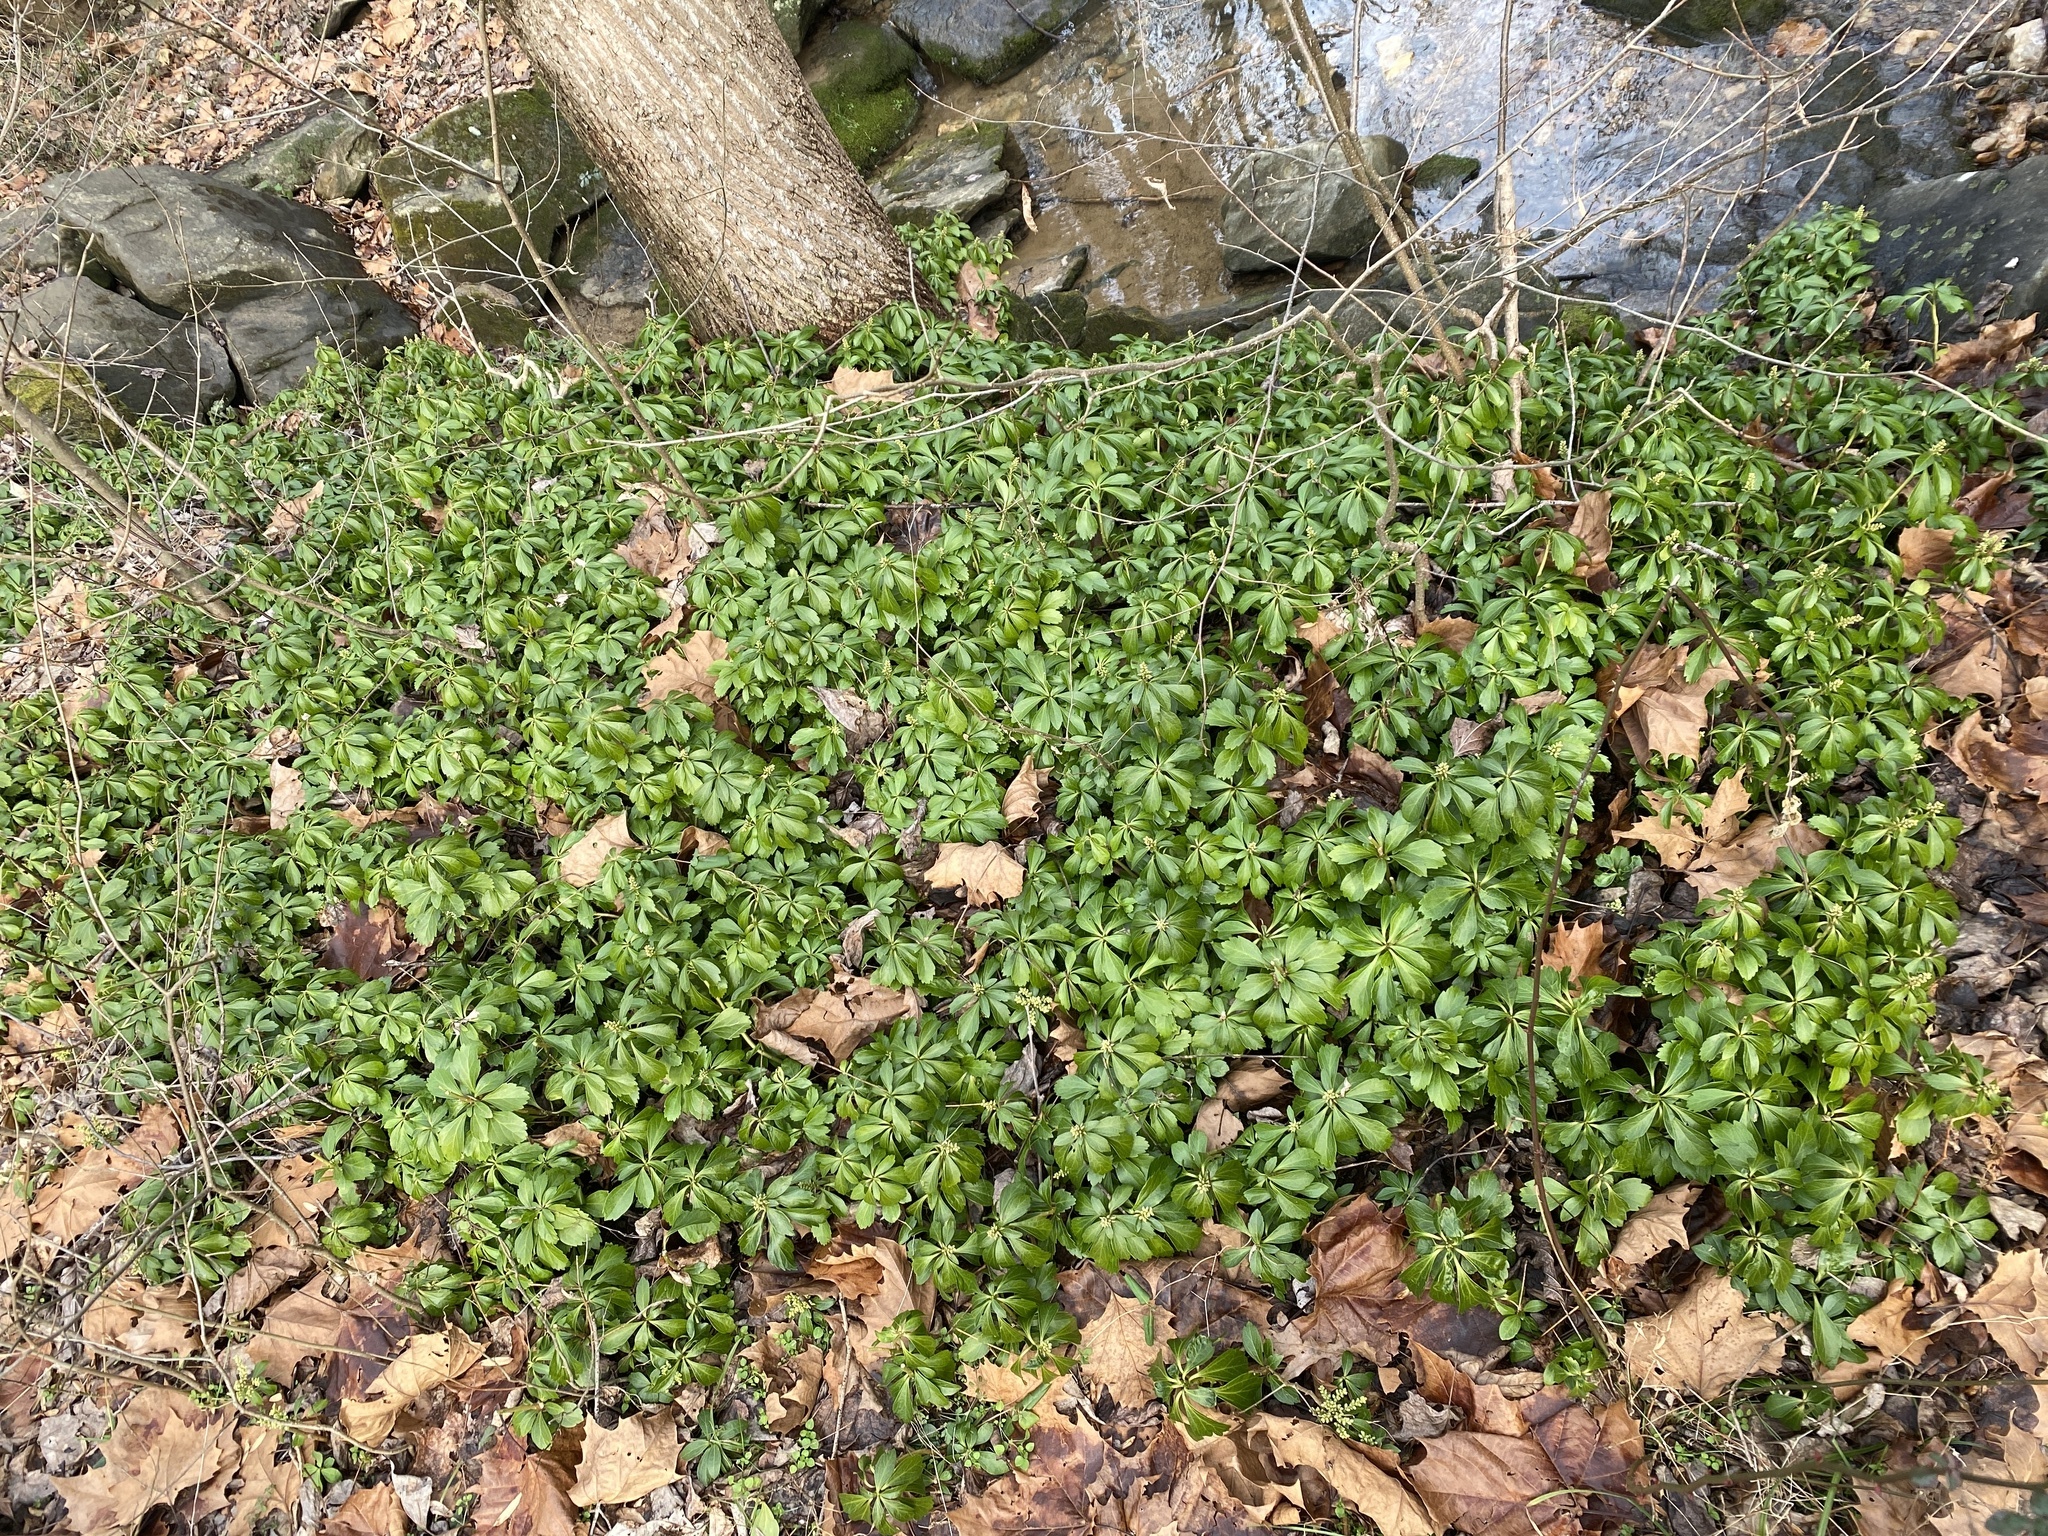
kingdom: Plantae
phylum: Tracheophyta
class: Magnoliopsida
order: Buxales
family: Buxaceae
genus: Pachysandra
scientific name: Pachysandra terminalis
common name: Japanese pachysandra
